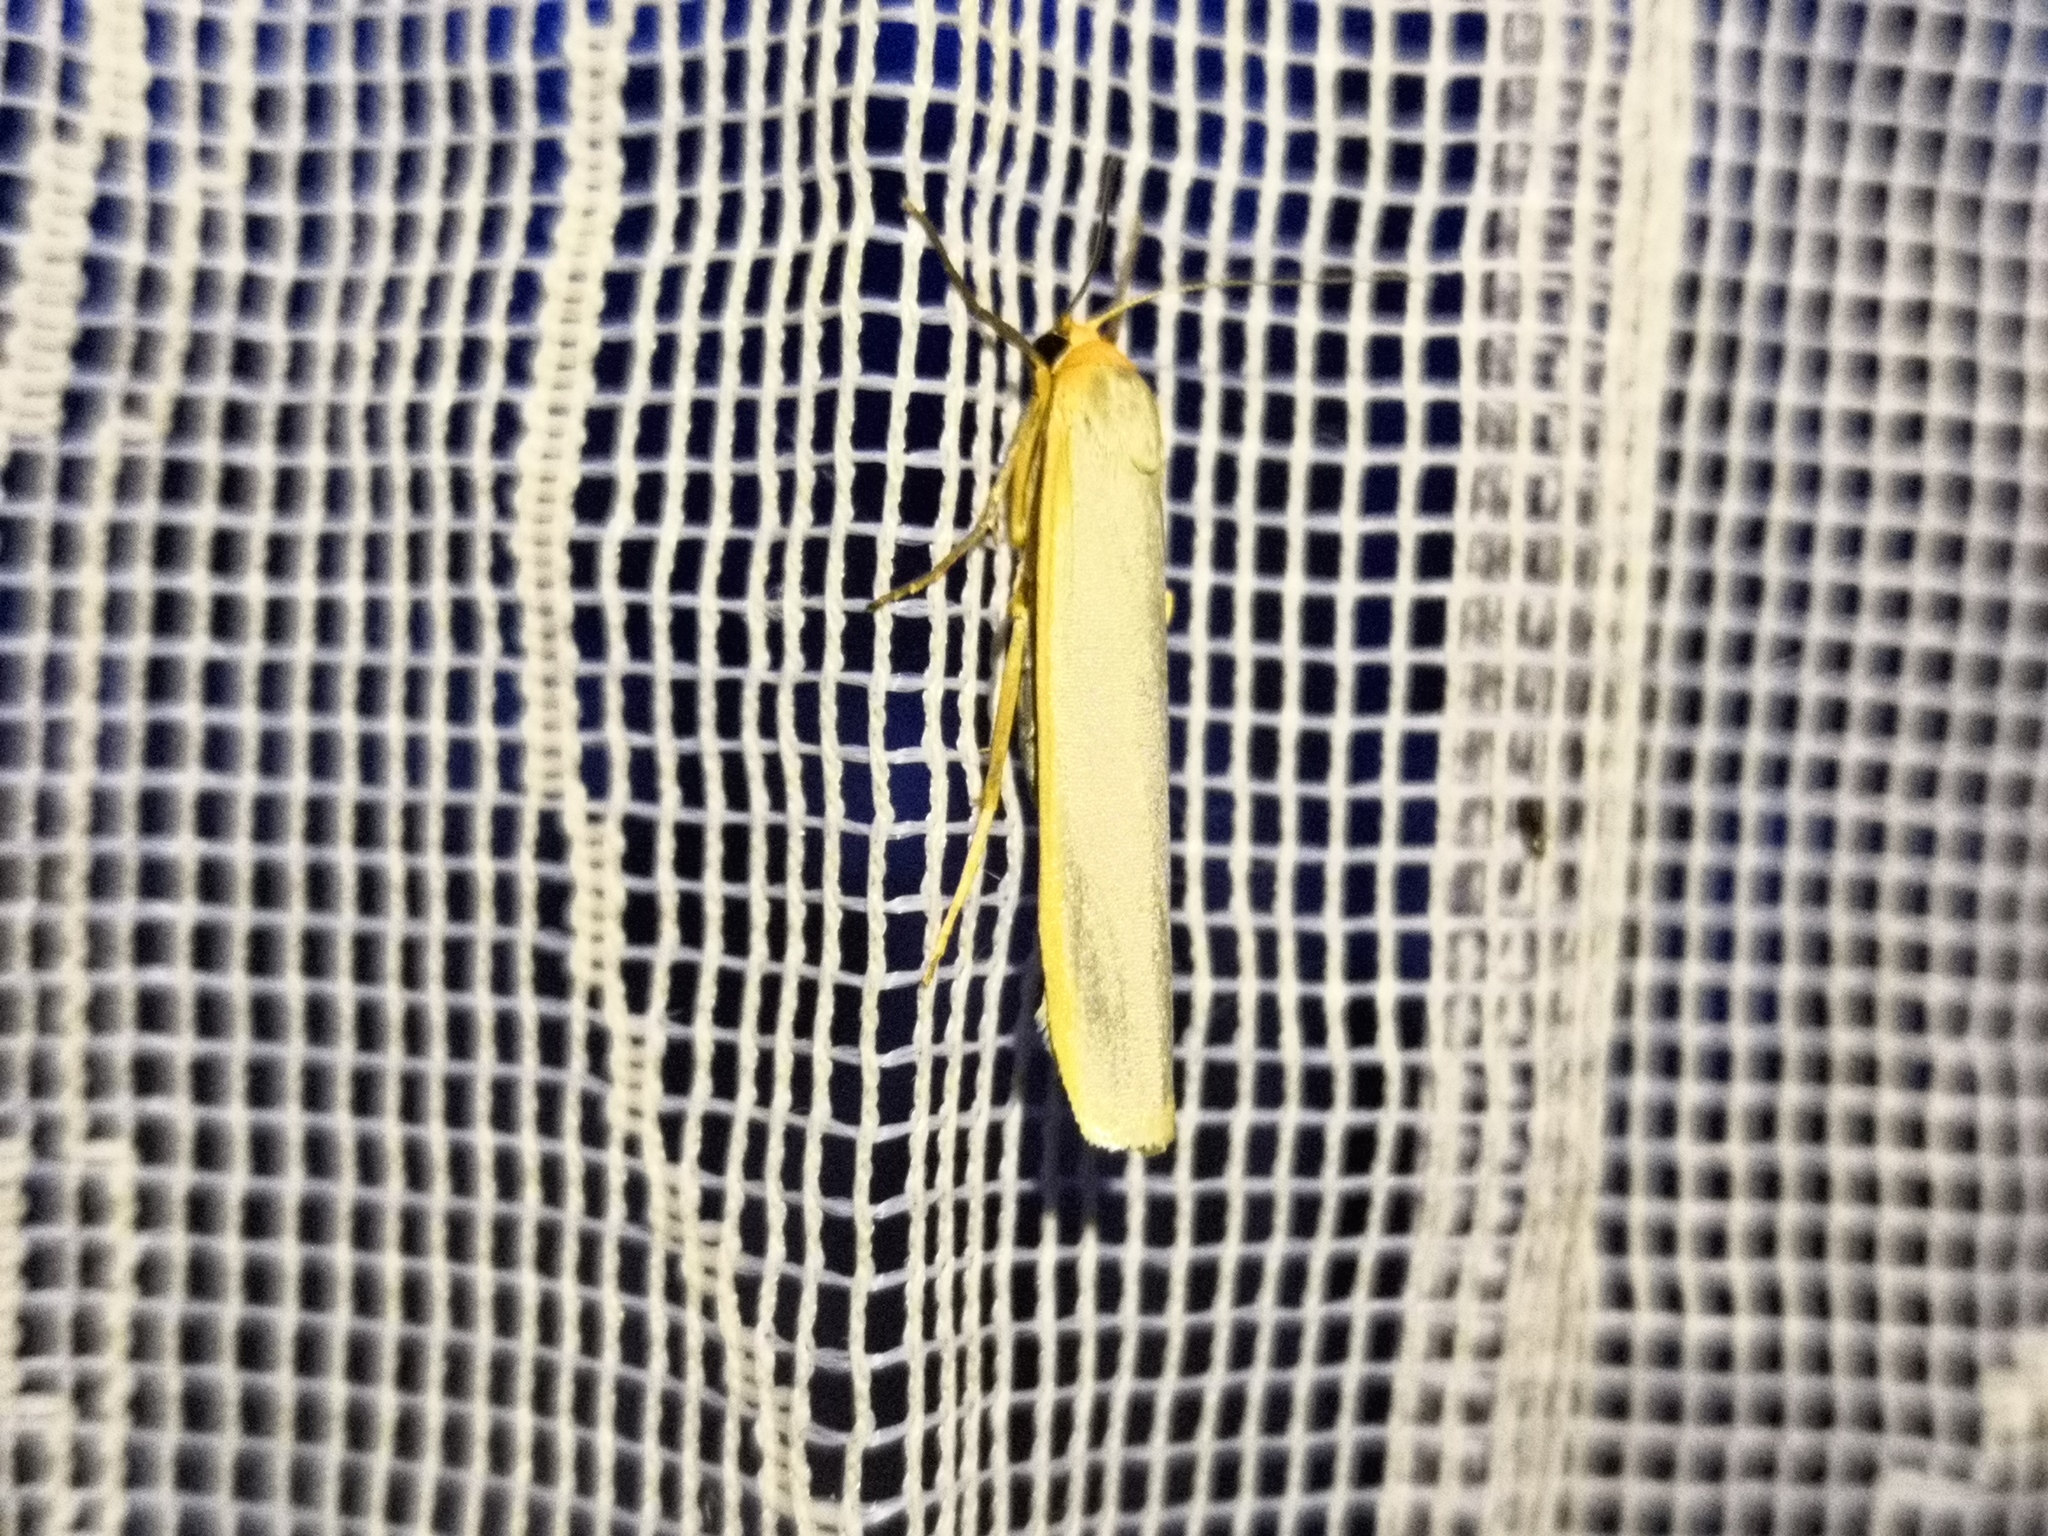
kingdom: Animalia
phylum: Arthropoda
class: Insecta
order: Lepidoptera
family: Erebidae
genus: Manulea
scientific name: Manulea complana
